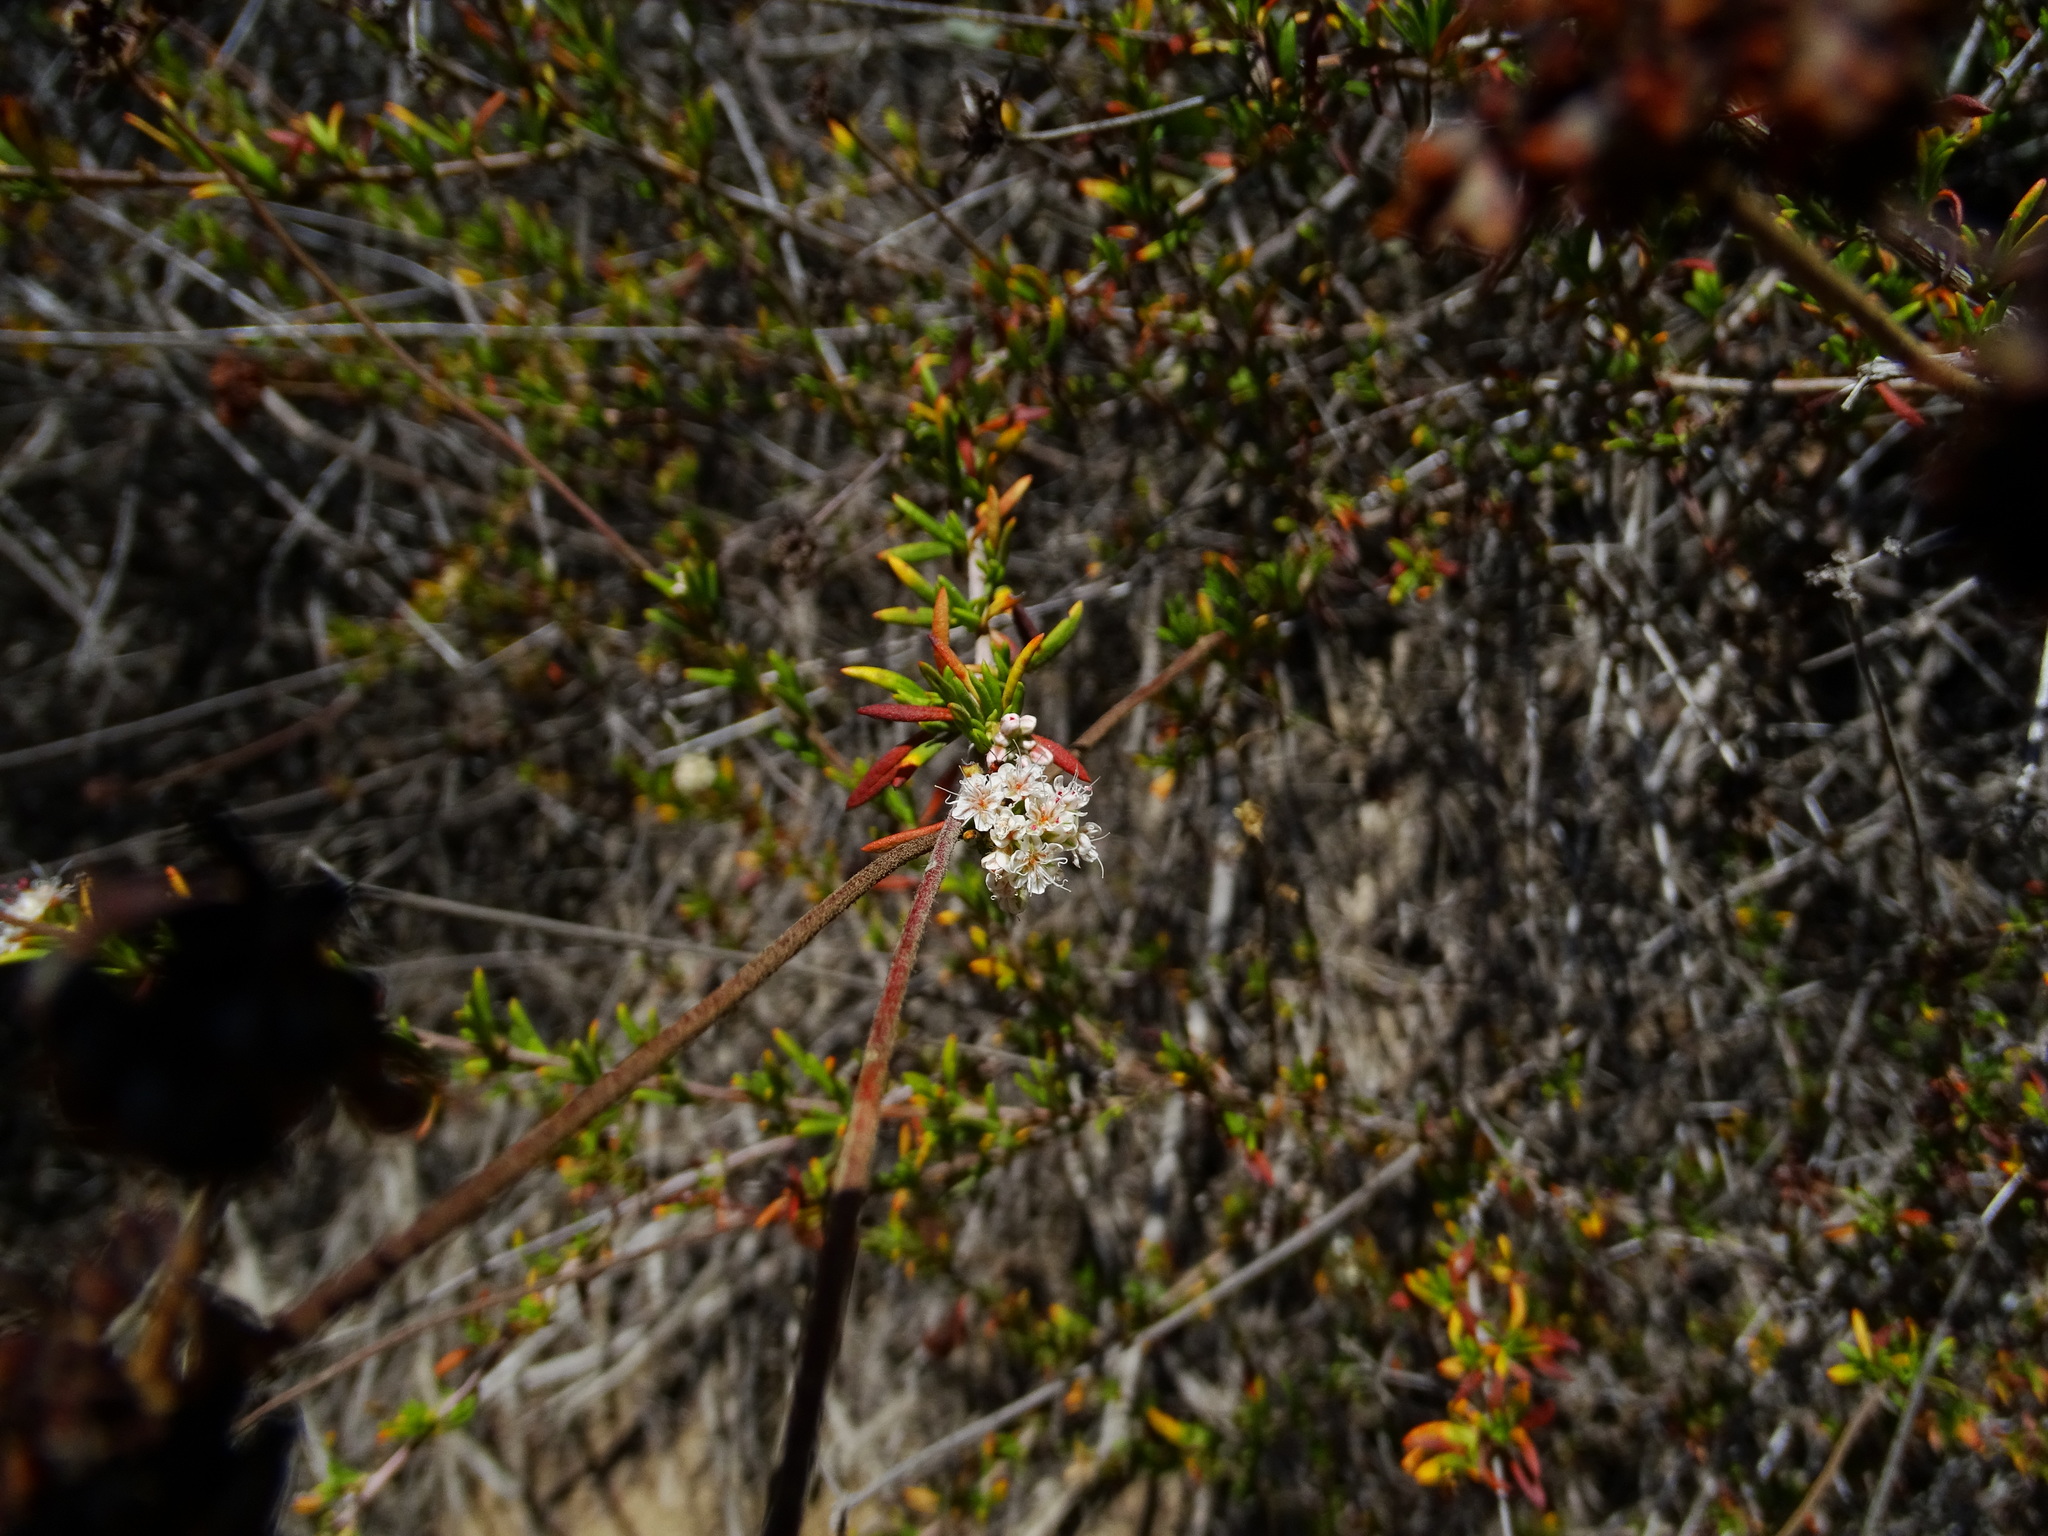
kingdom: Plantae
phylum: Tracheophyta
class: Magnoliopsida
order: Caryophyllales
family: Polygonaceae
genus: Eriogonum
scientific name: Eriogonum fasciculatum
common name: California wild buckwheat
